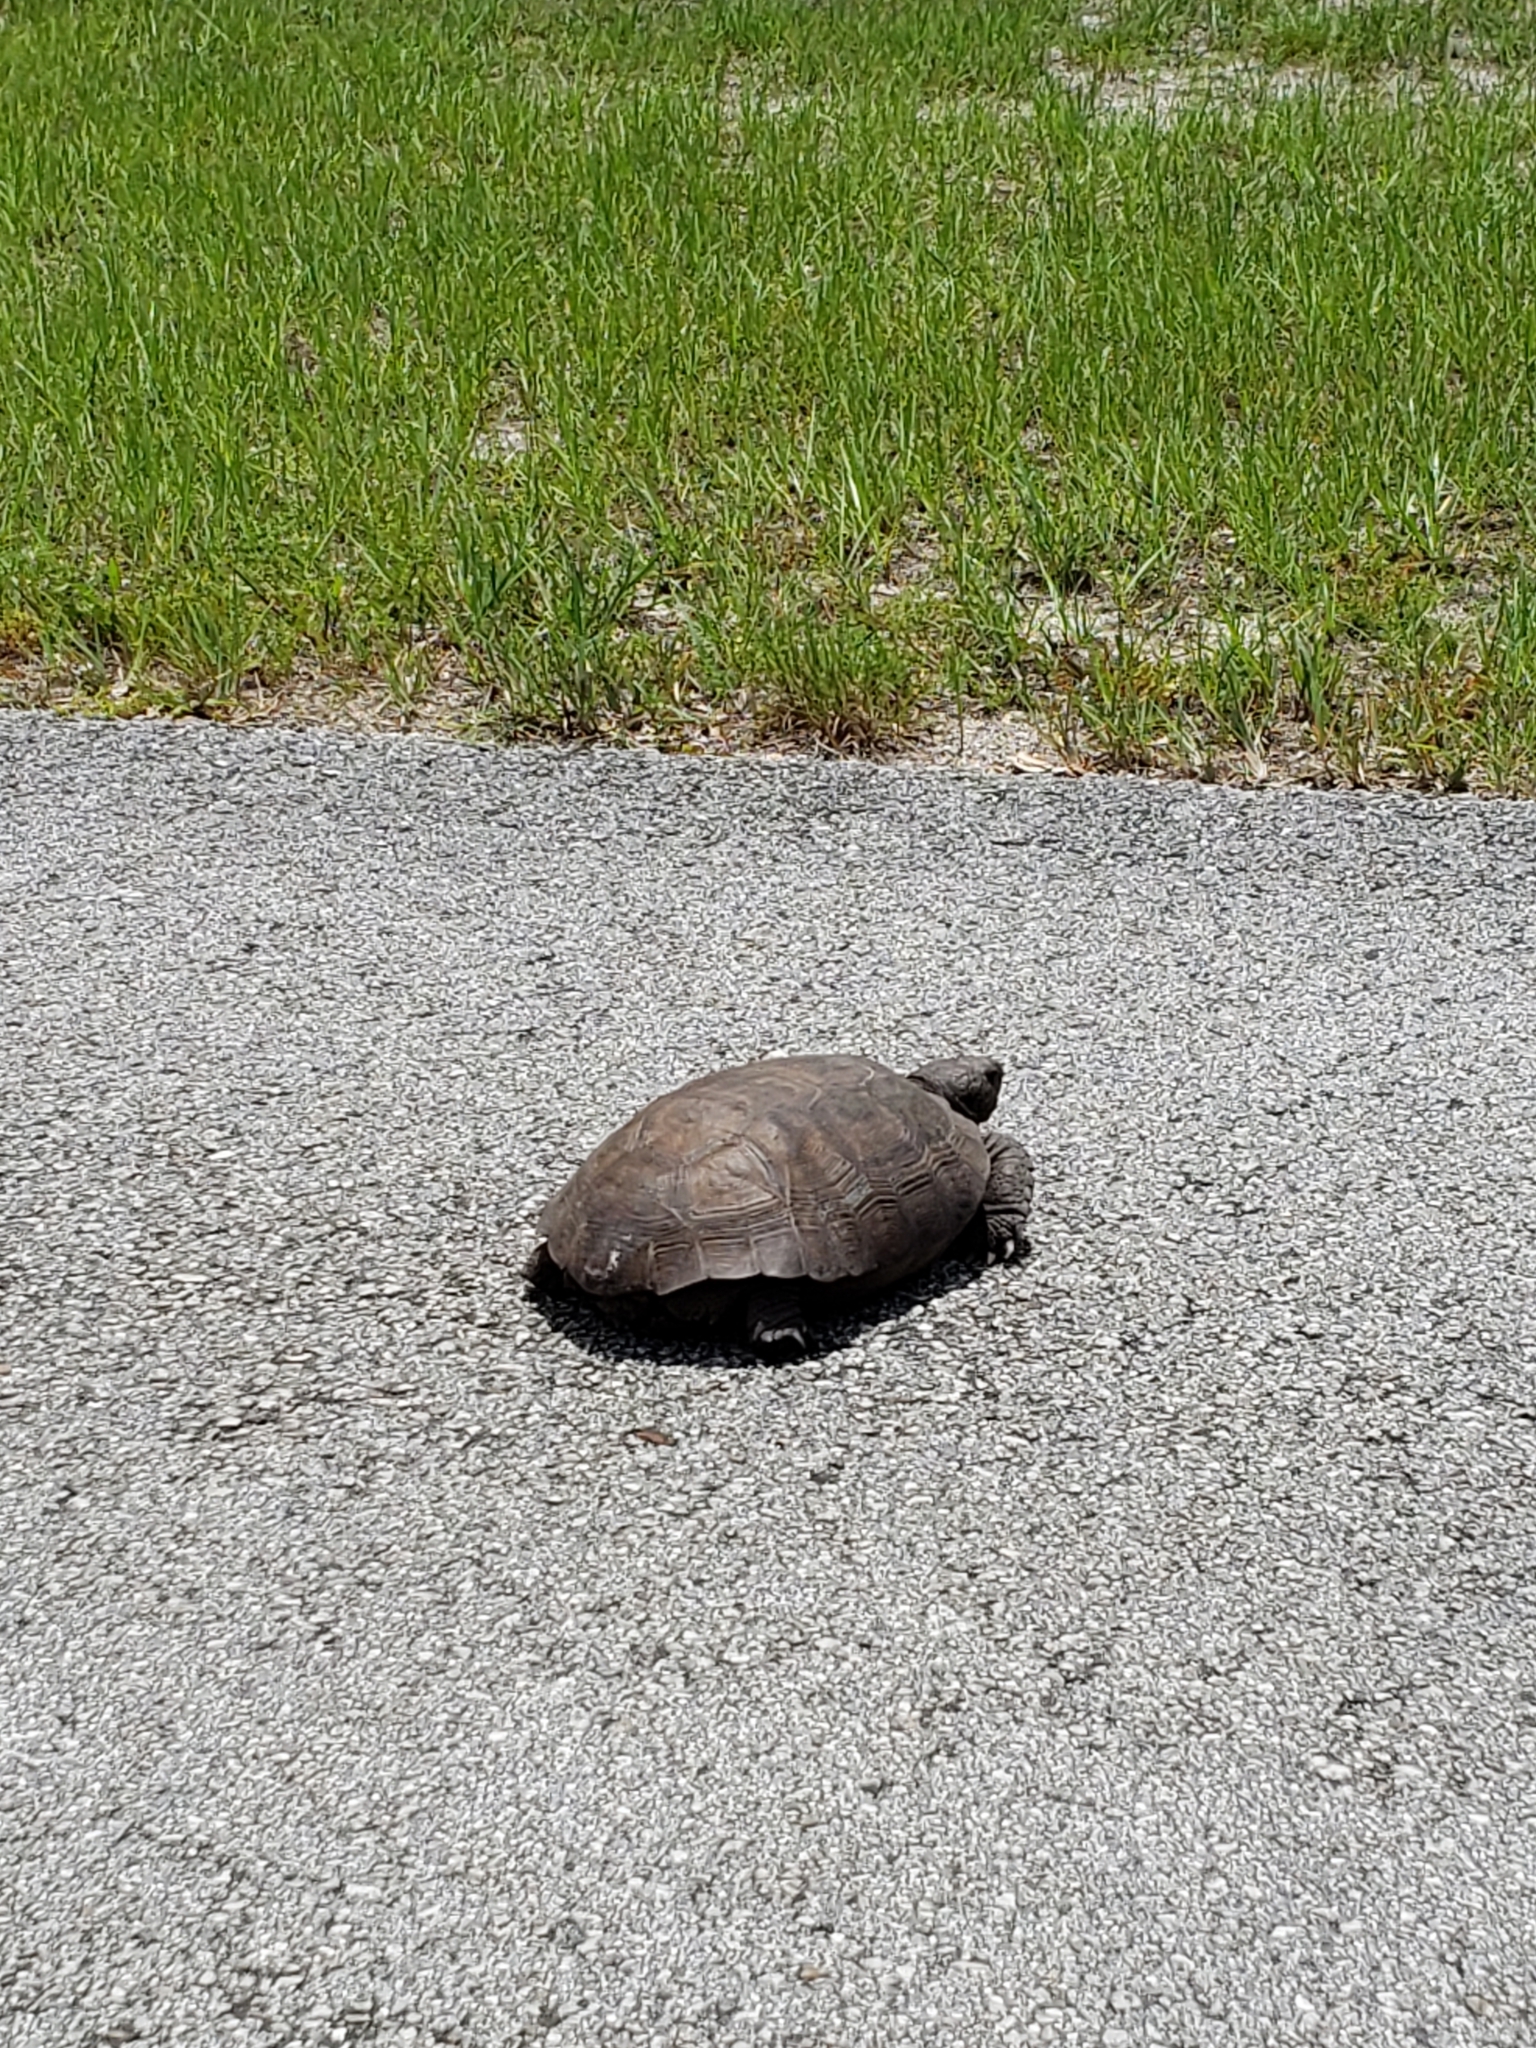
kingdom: Animalia
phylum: Chordata
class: Testudines
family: Testudinidae
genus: Gopherus
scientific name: Gopherus polyphemus
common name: Florida gopher tortoise
